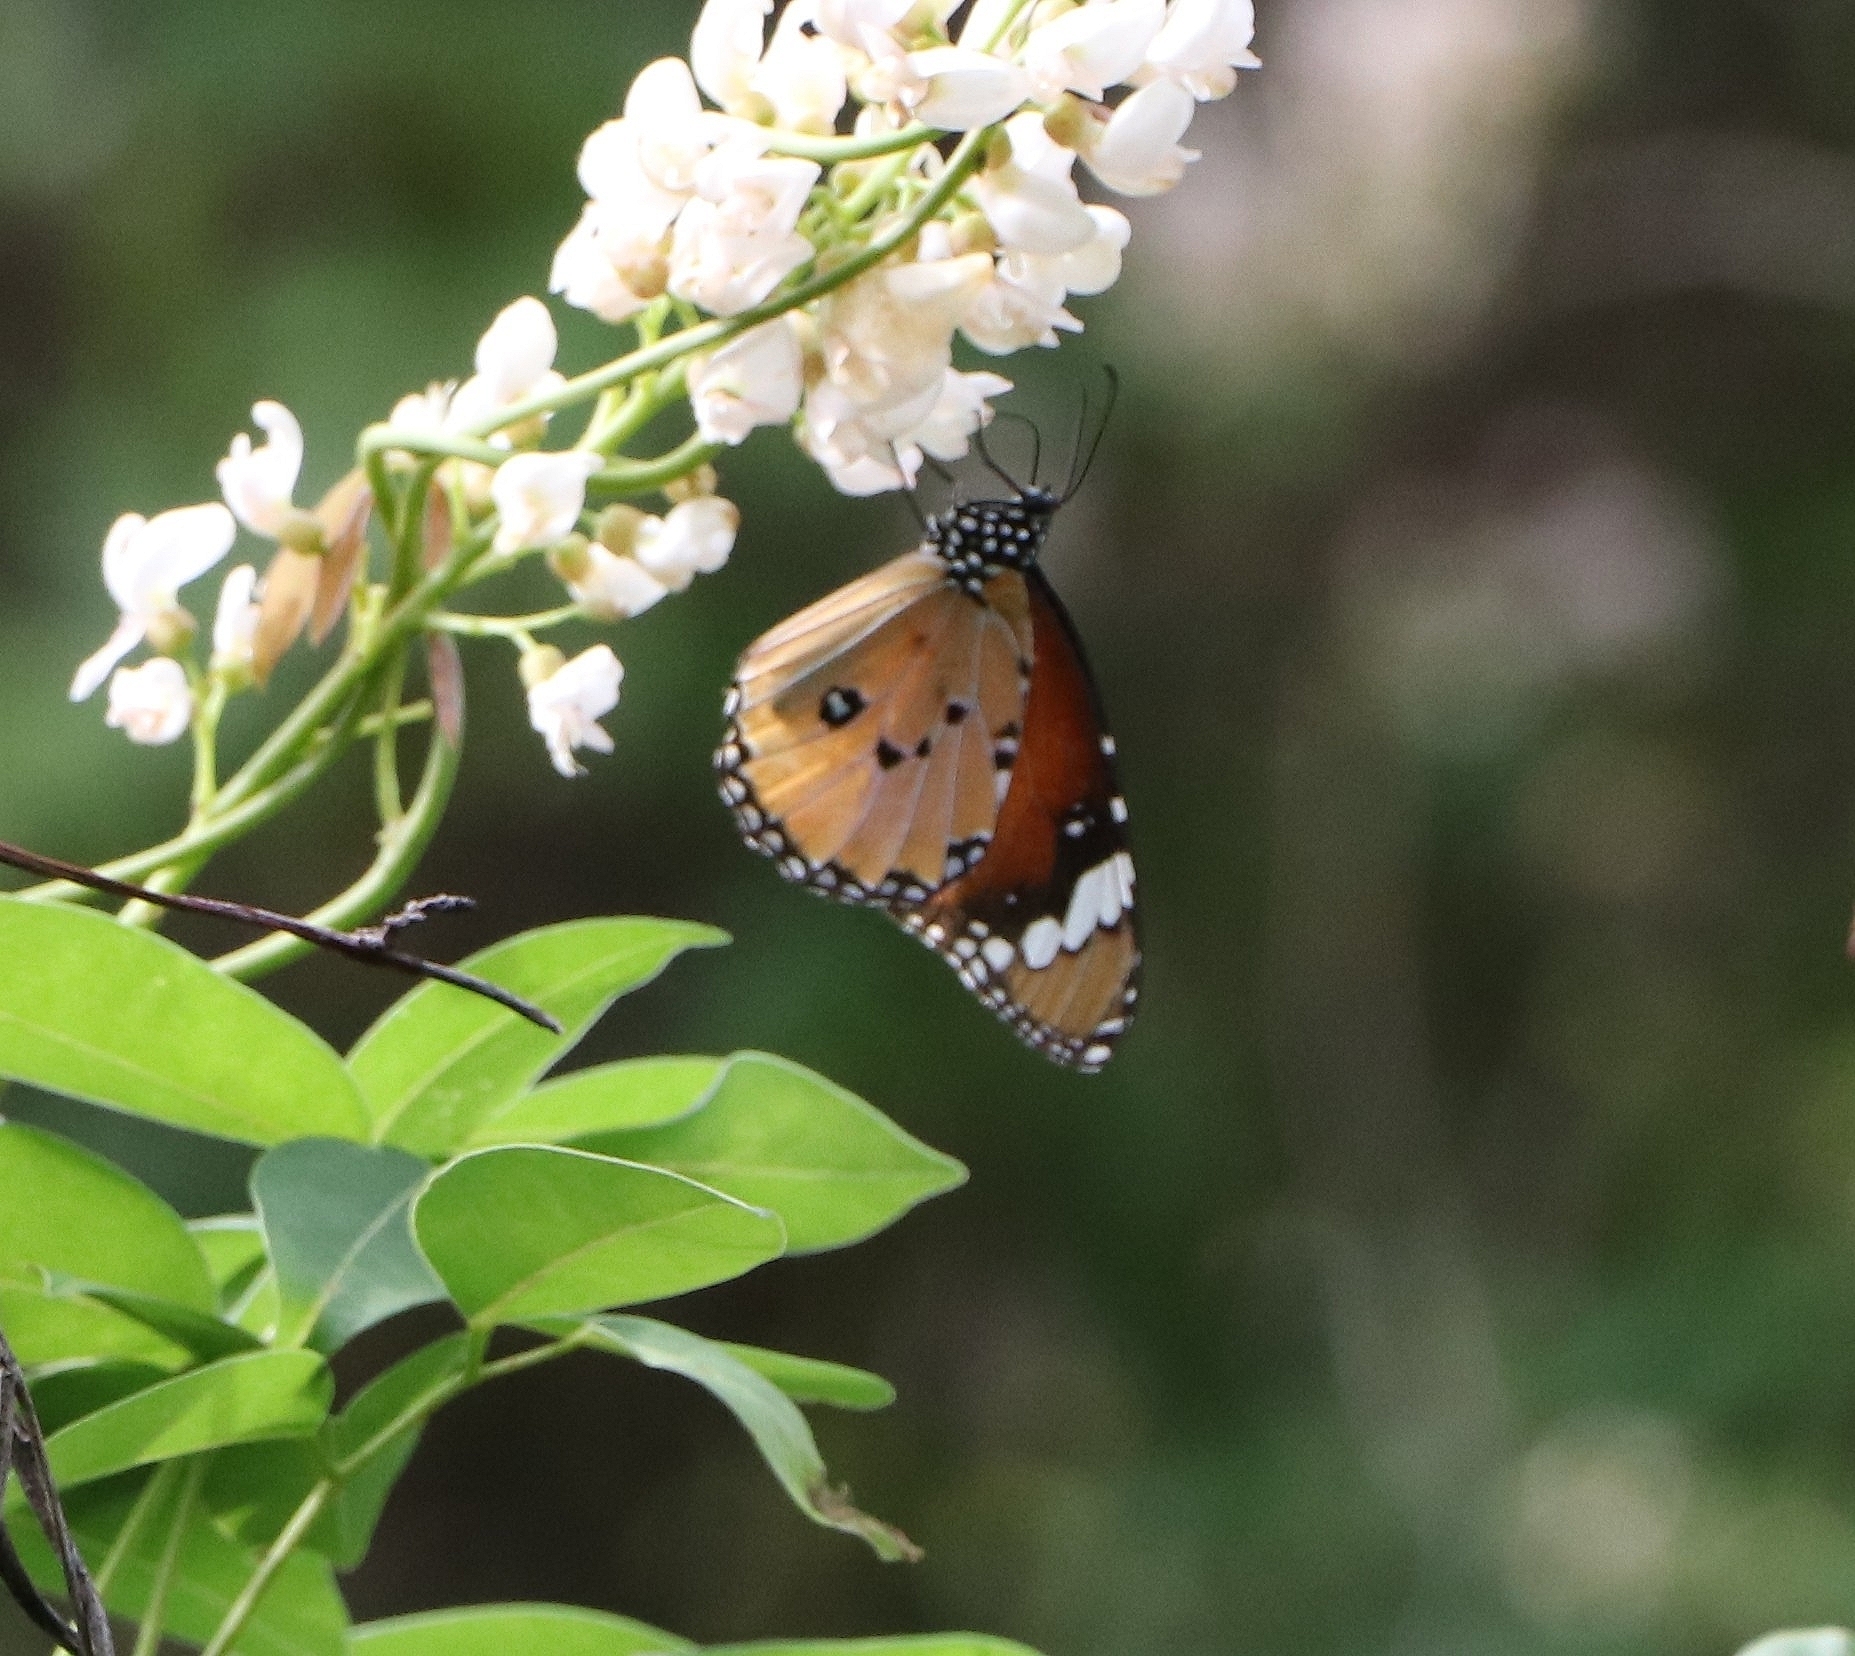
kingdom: Animalia
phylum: Arthropoda
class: Insecta
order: Lepidoptera
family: Nymphalidae
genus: Danaus
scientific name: Danaus chrysippus
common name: Plain tiger
